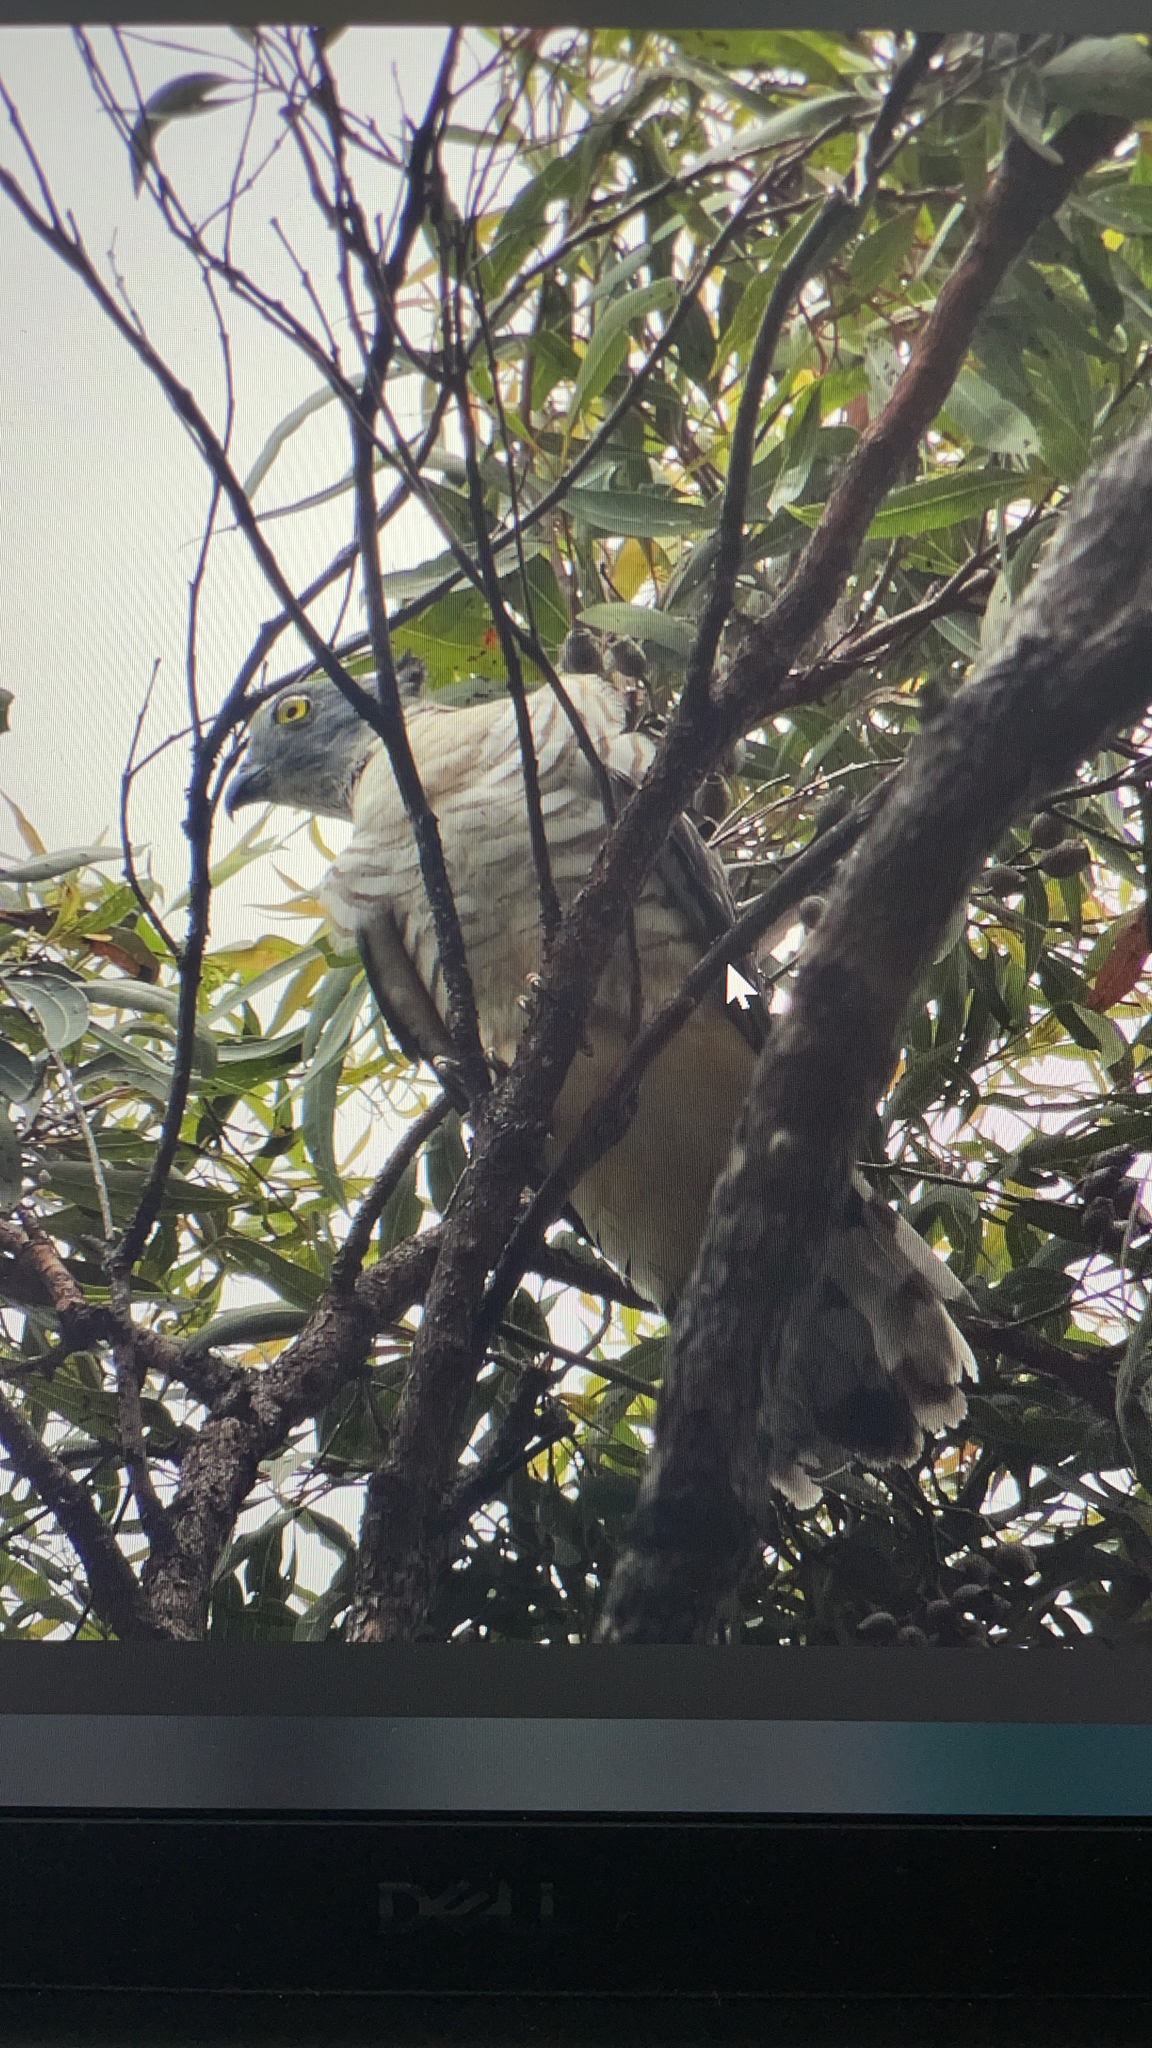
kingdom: Animalia
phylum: Chordata
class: Aves
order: Accipitriformes
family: Accipitridae
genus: Aviceda
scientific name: Aviceda subcristata
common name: Pacific baza
